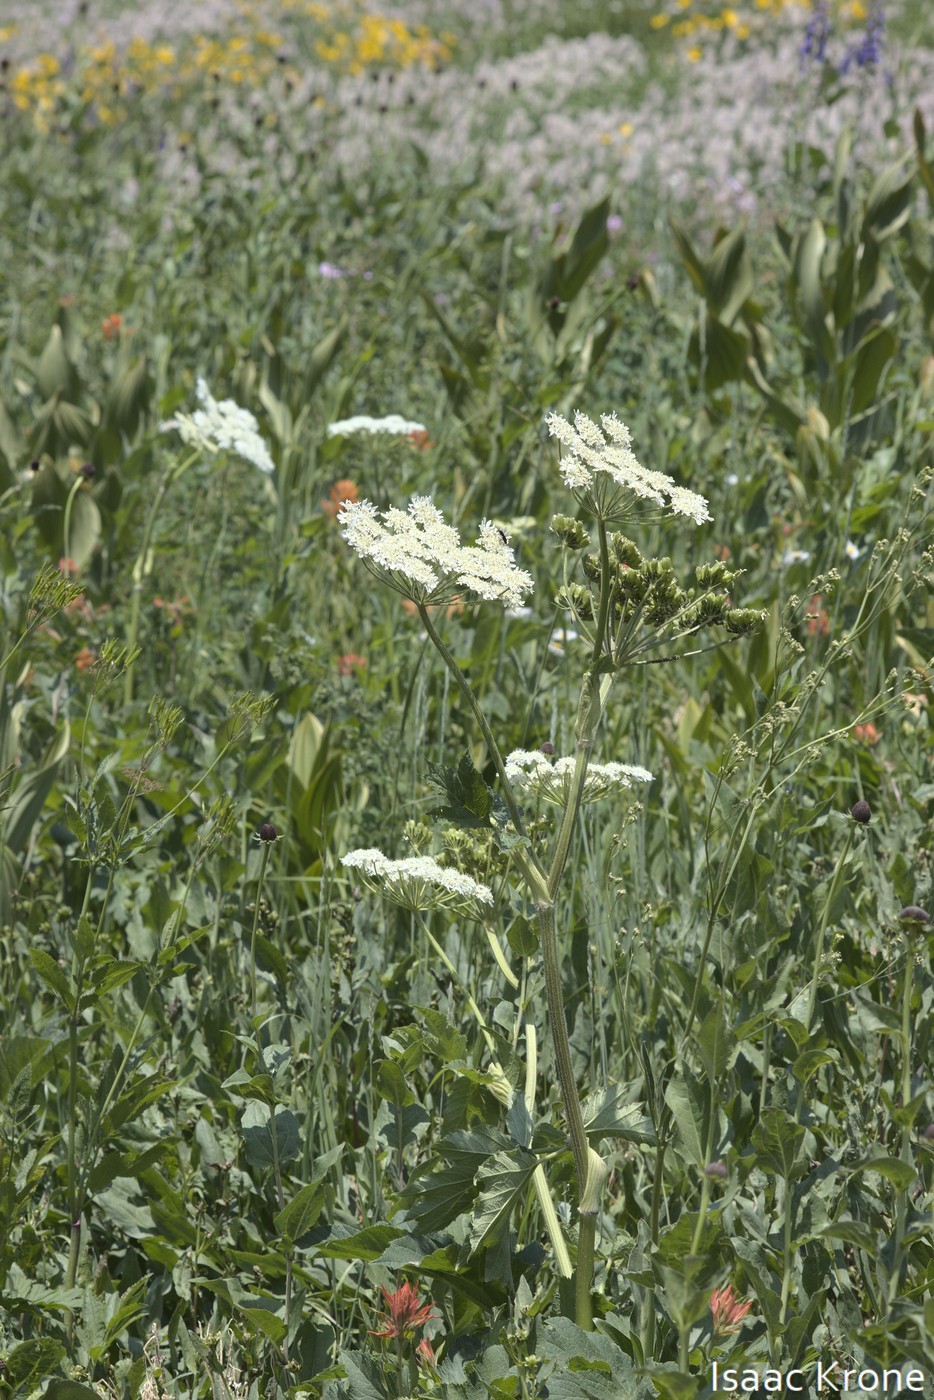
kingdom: Plantae
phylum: Tracheophyta
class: Magnoliopsida
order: Apiales
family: Apiaceae
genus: Heracleum
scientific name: Heracleum maximum
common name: American cow parsnip
